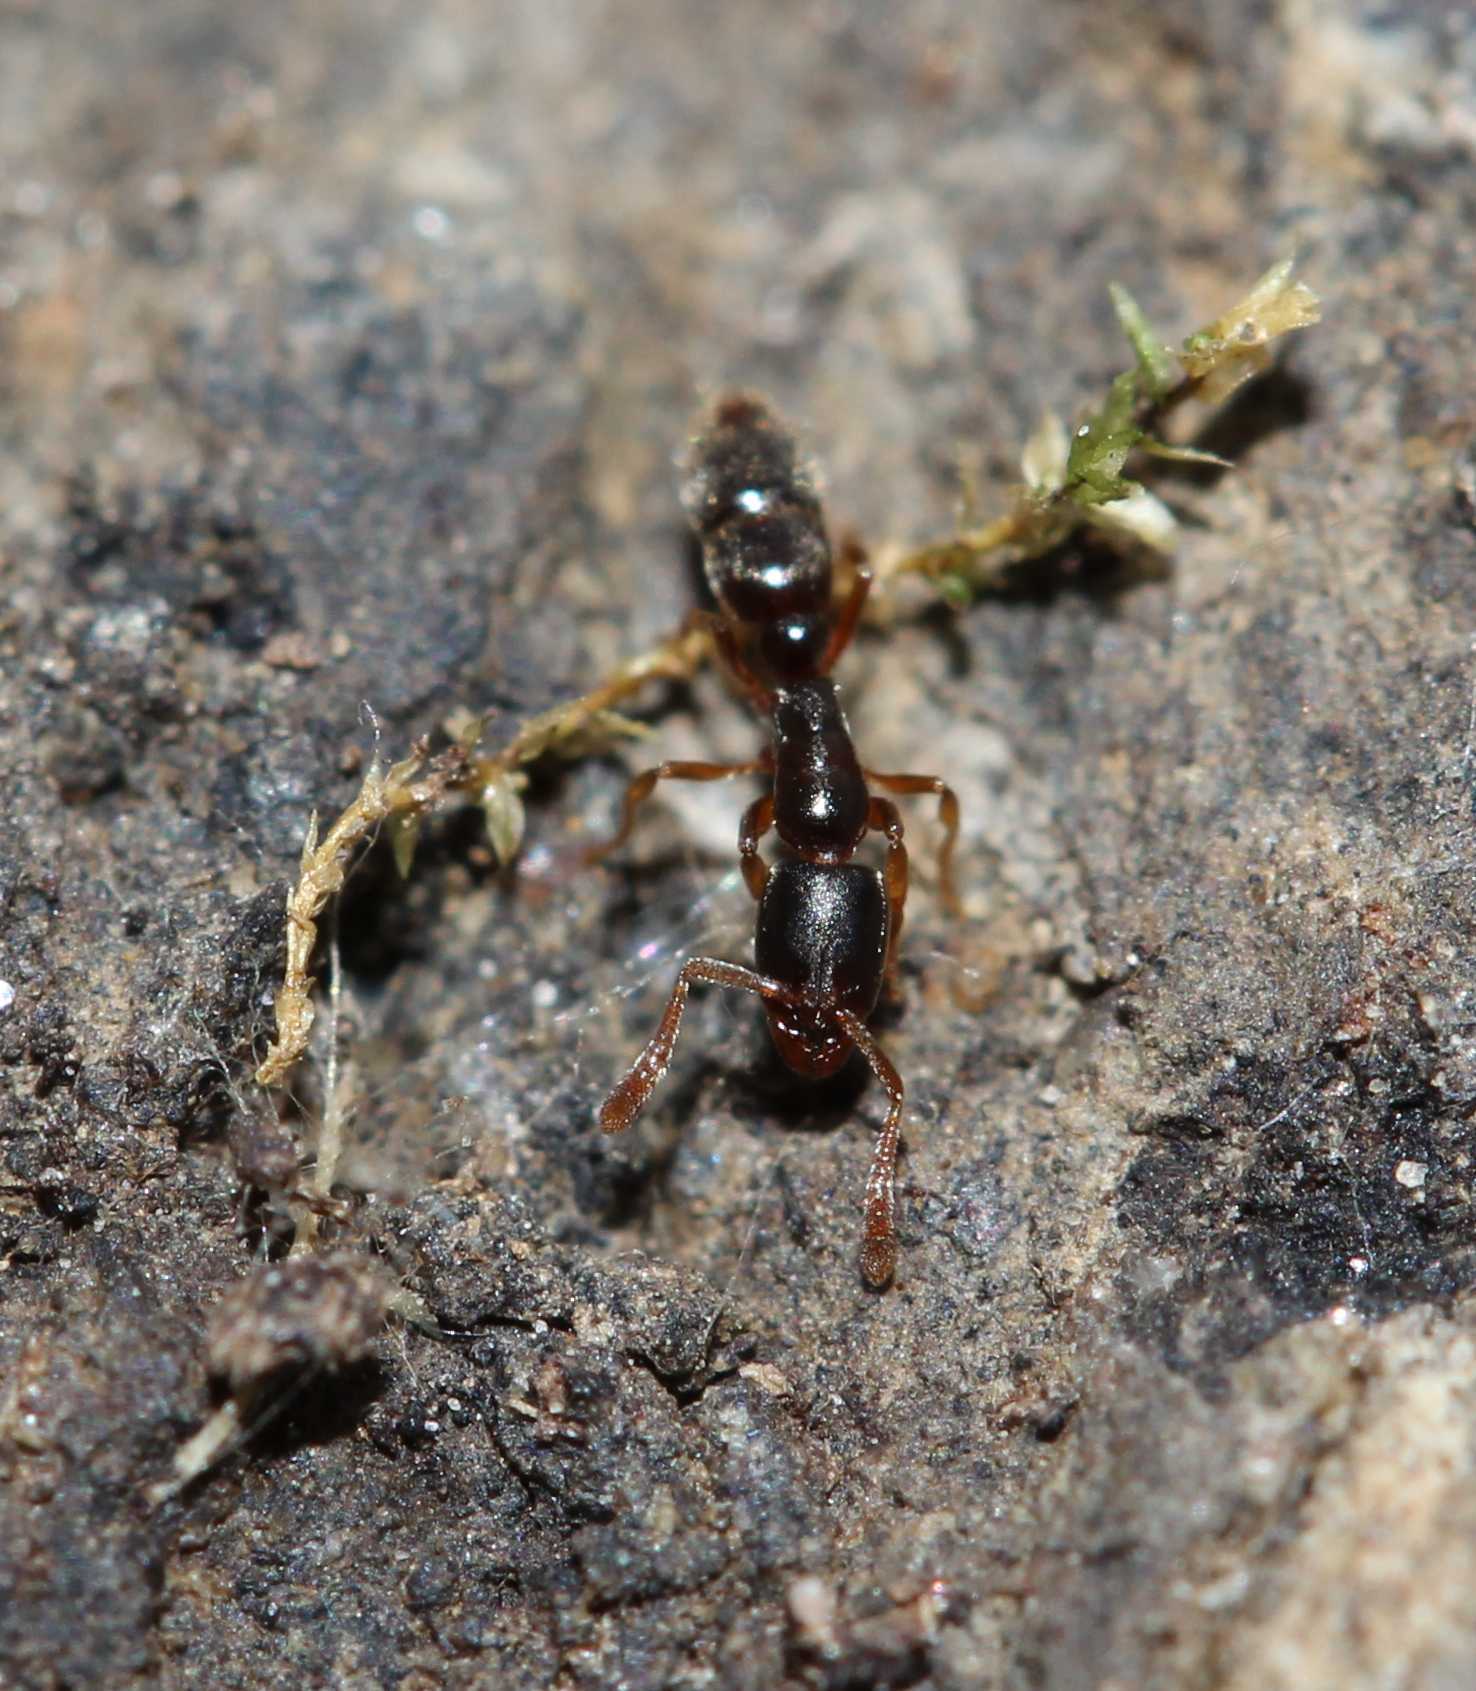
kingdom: Animalia
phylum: Arthropoda
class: Insecta
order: Hymenoptera
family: Formicidae
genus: Ponera
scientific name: Ponera
